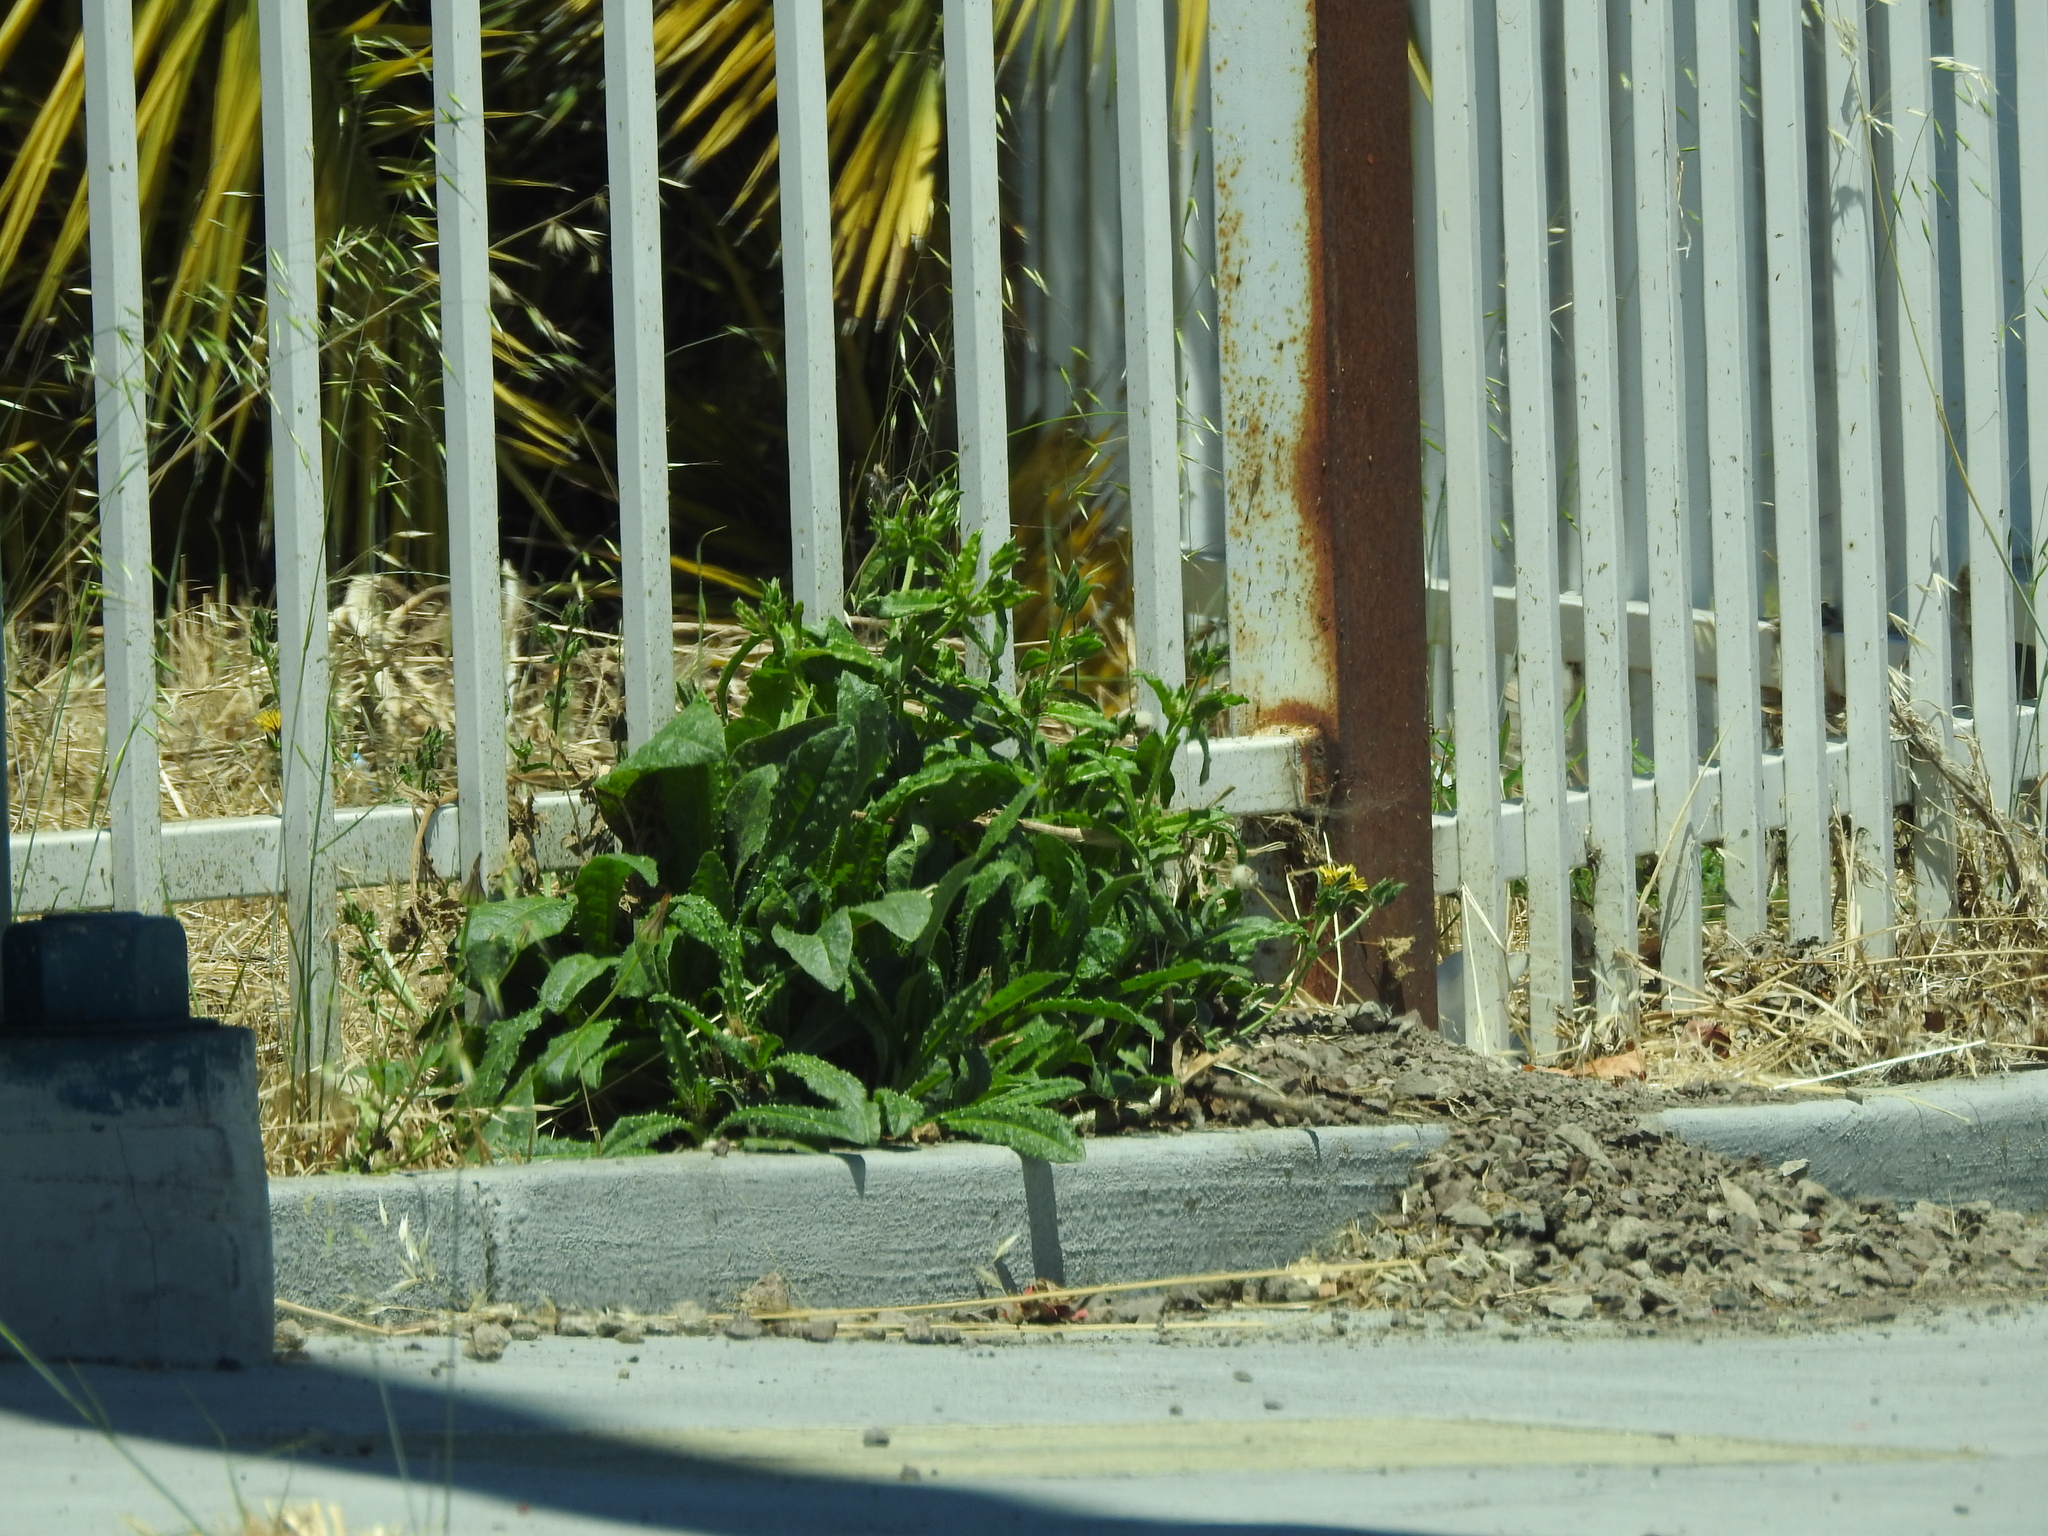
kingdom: Plantae
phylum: Tracheophyta
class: Magnoliopsida
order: Asterales
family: Asteraceae
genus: Helminthotheca
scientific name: Helminthotheca echioides
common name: Ox-tongue
